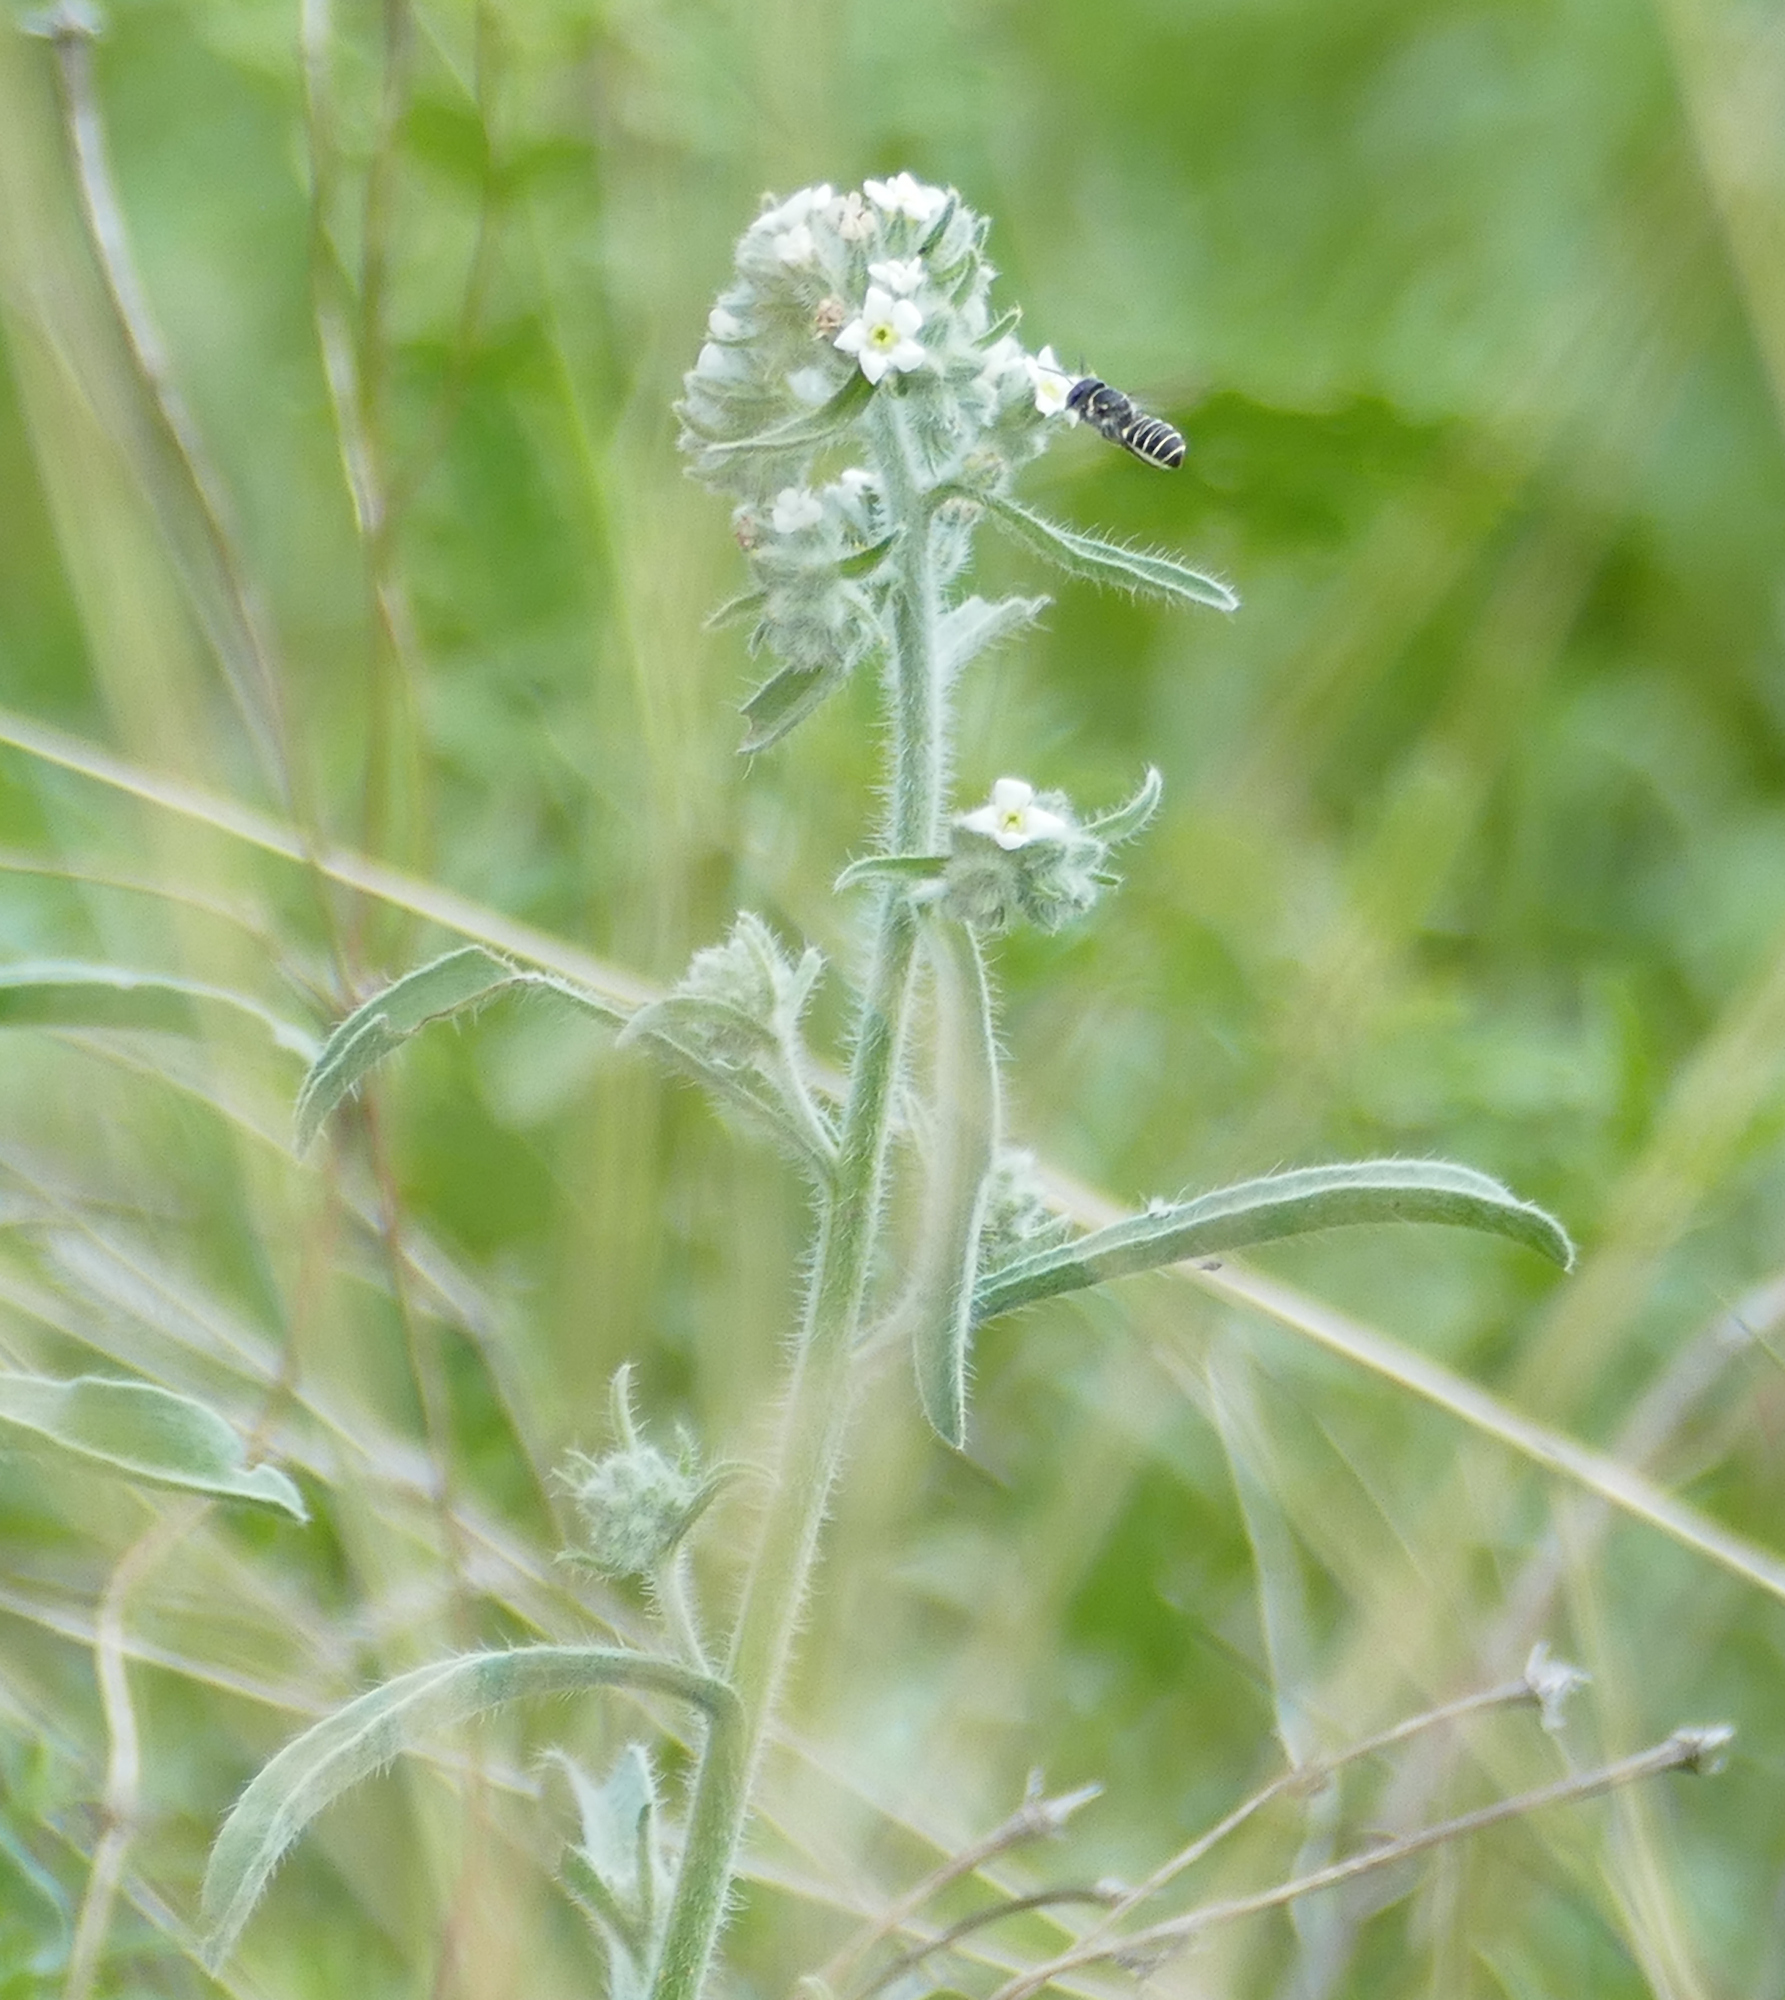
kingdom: Plantae
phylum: Tracheophyta
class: Magnoliopsida
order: Boraginales
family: Boraginaceae
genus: Oreocarya
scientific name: Oreocarya suffruticosa
